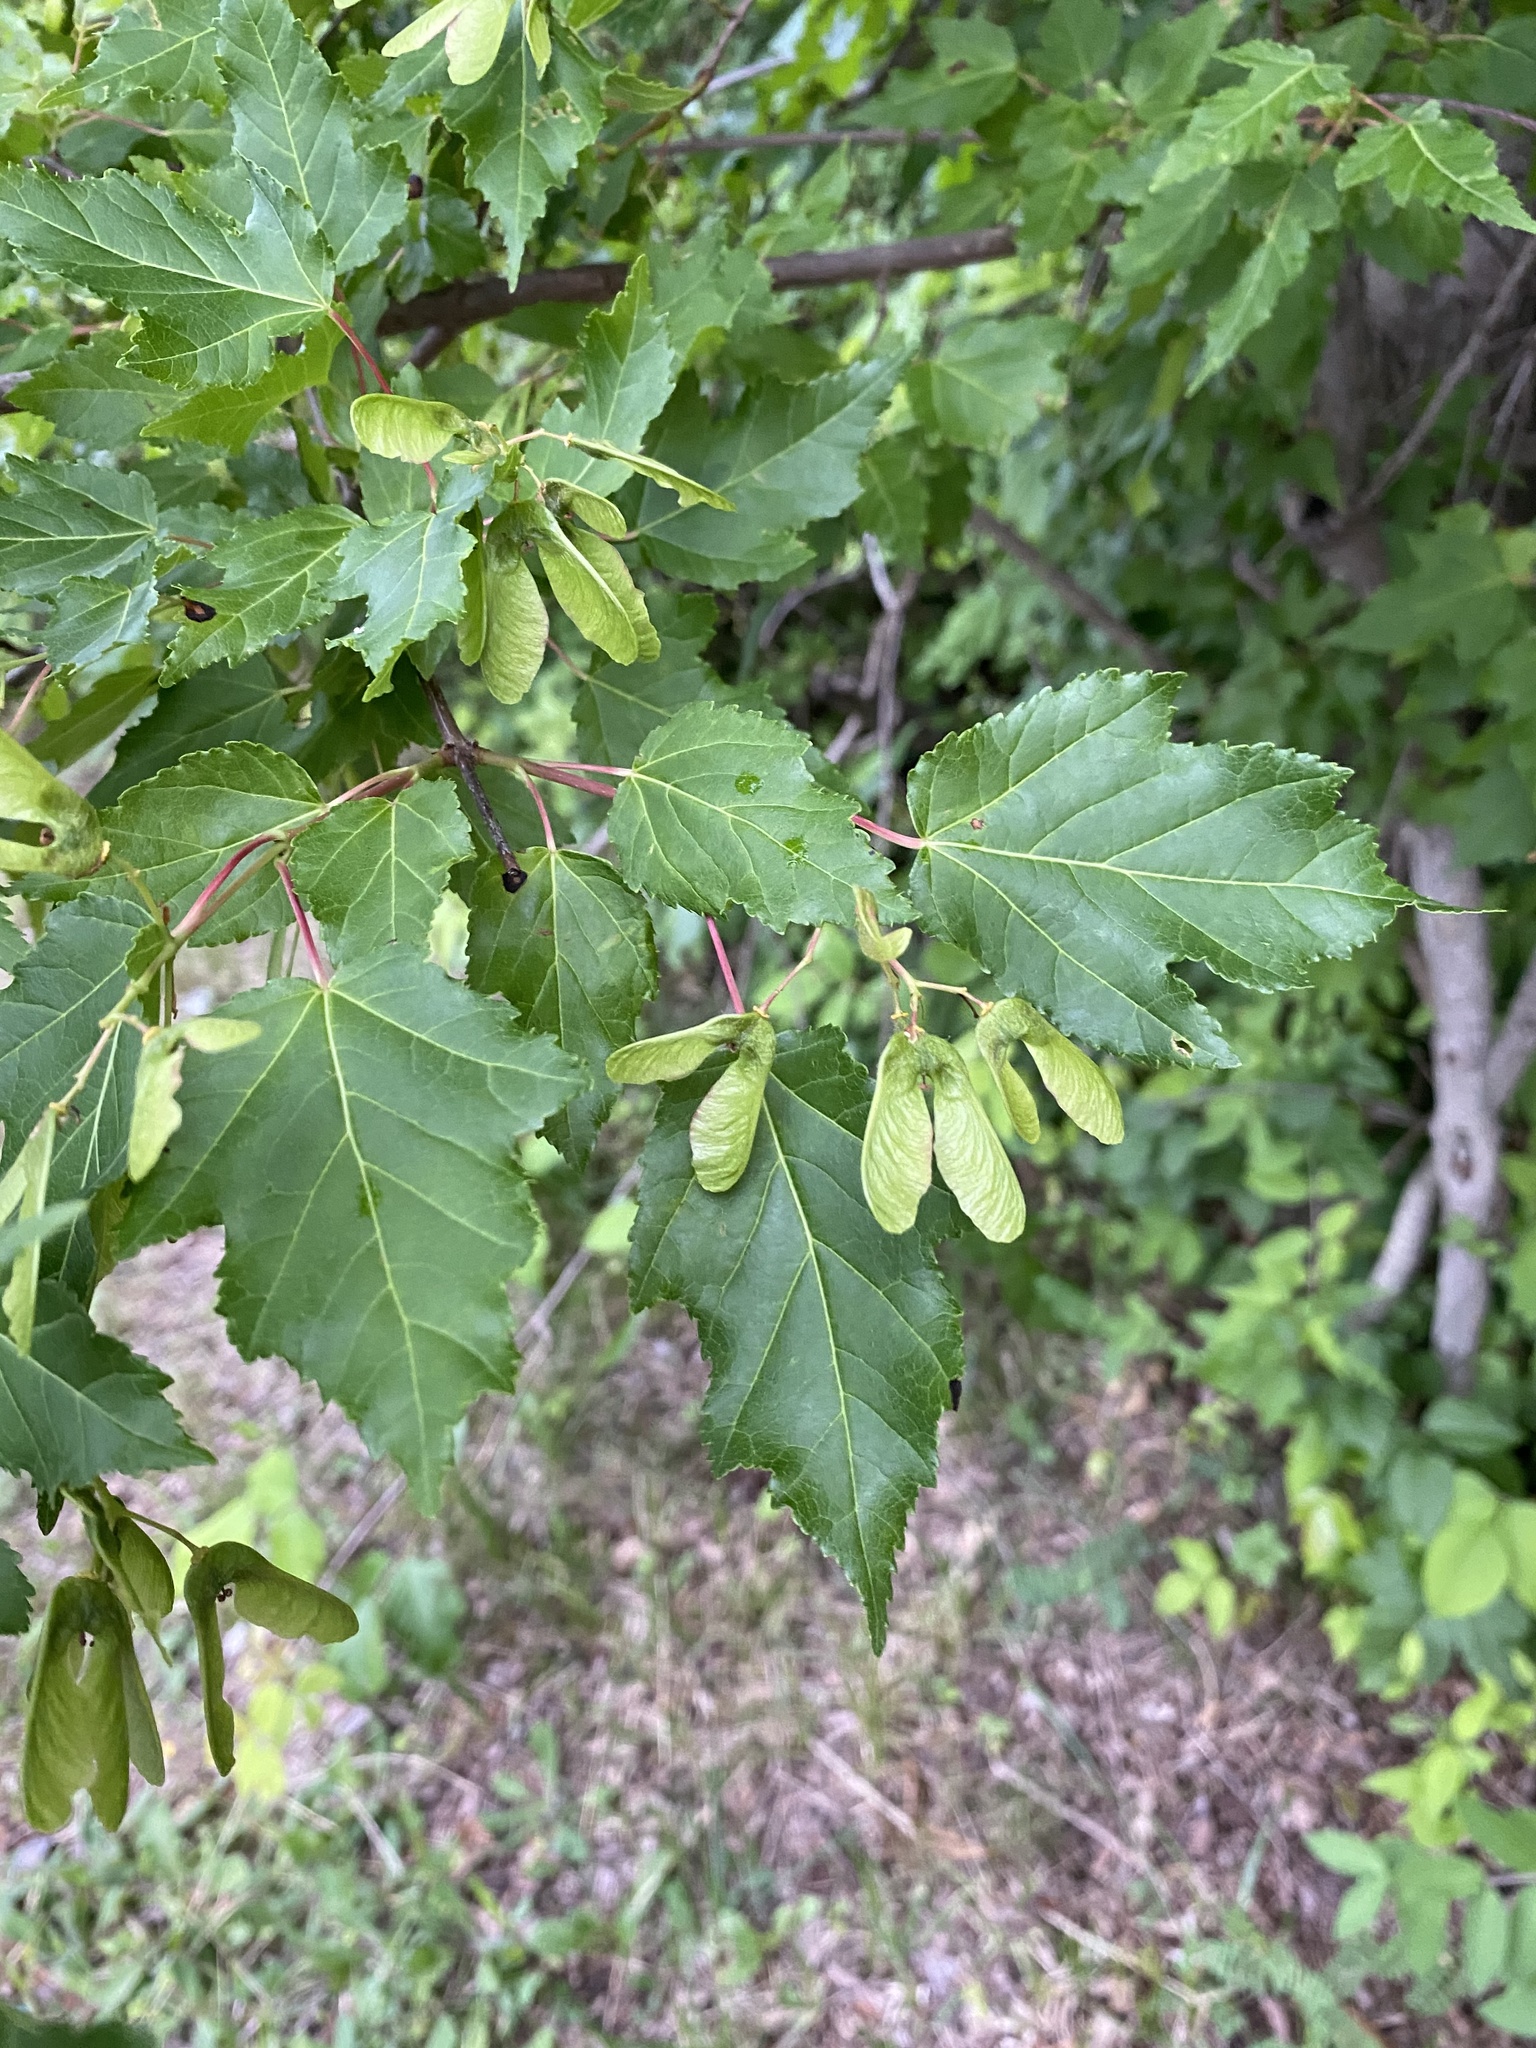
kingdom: Plantae
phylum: Tracheophyta
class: Magnoliopsida
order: Sapindales
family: Sapindaceae
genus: Acer
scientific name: Acer tataricum
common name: Tartar maple
